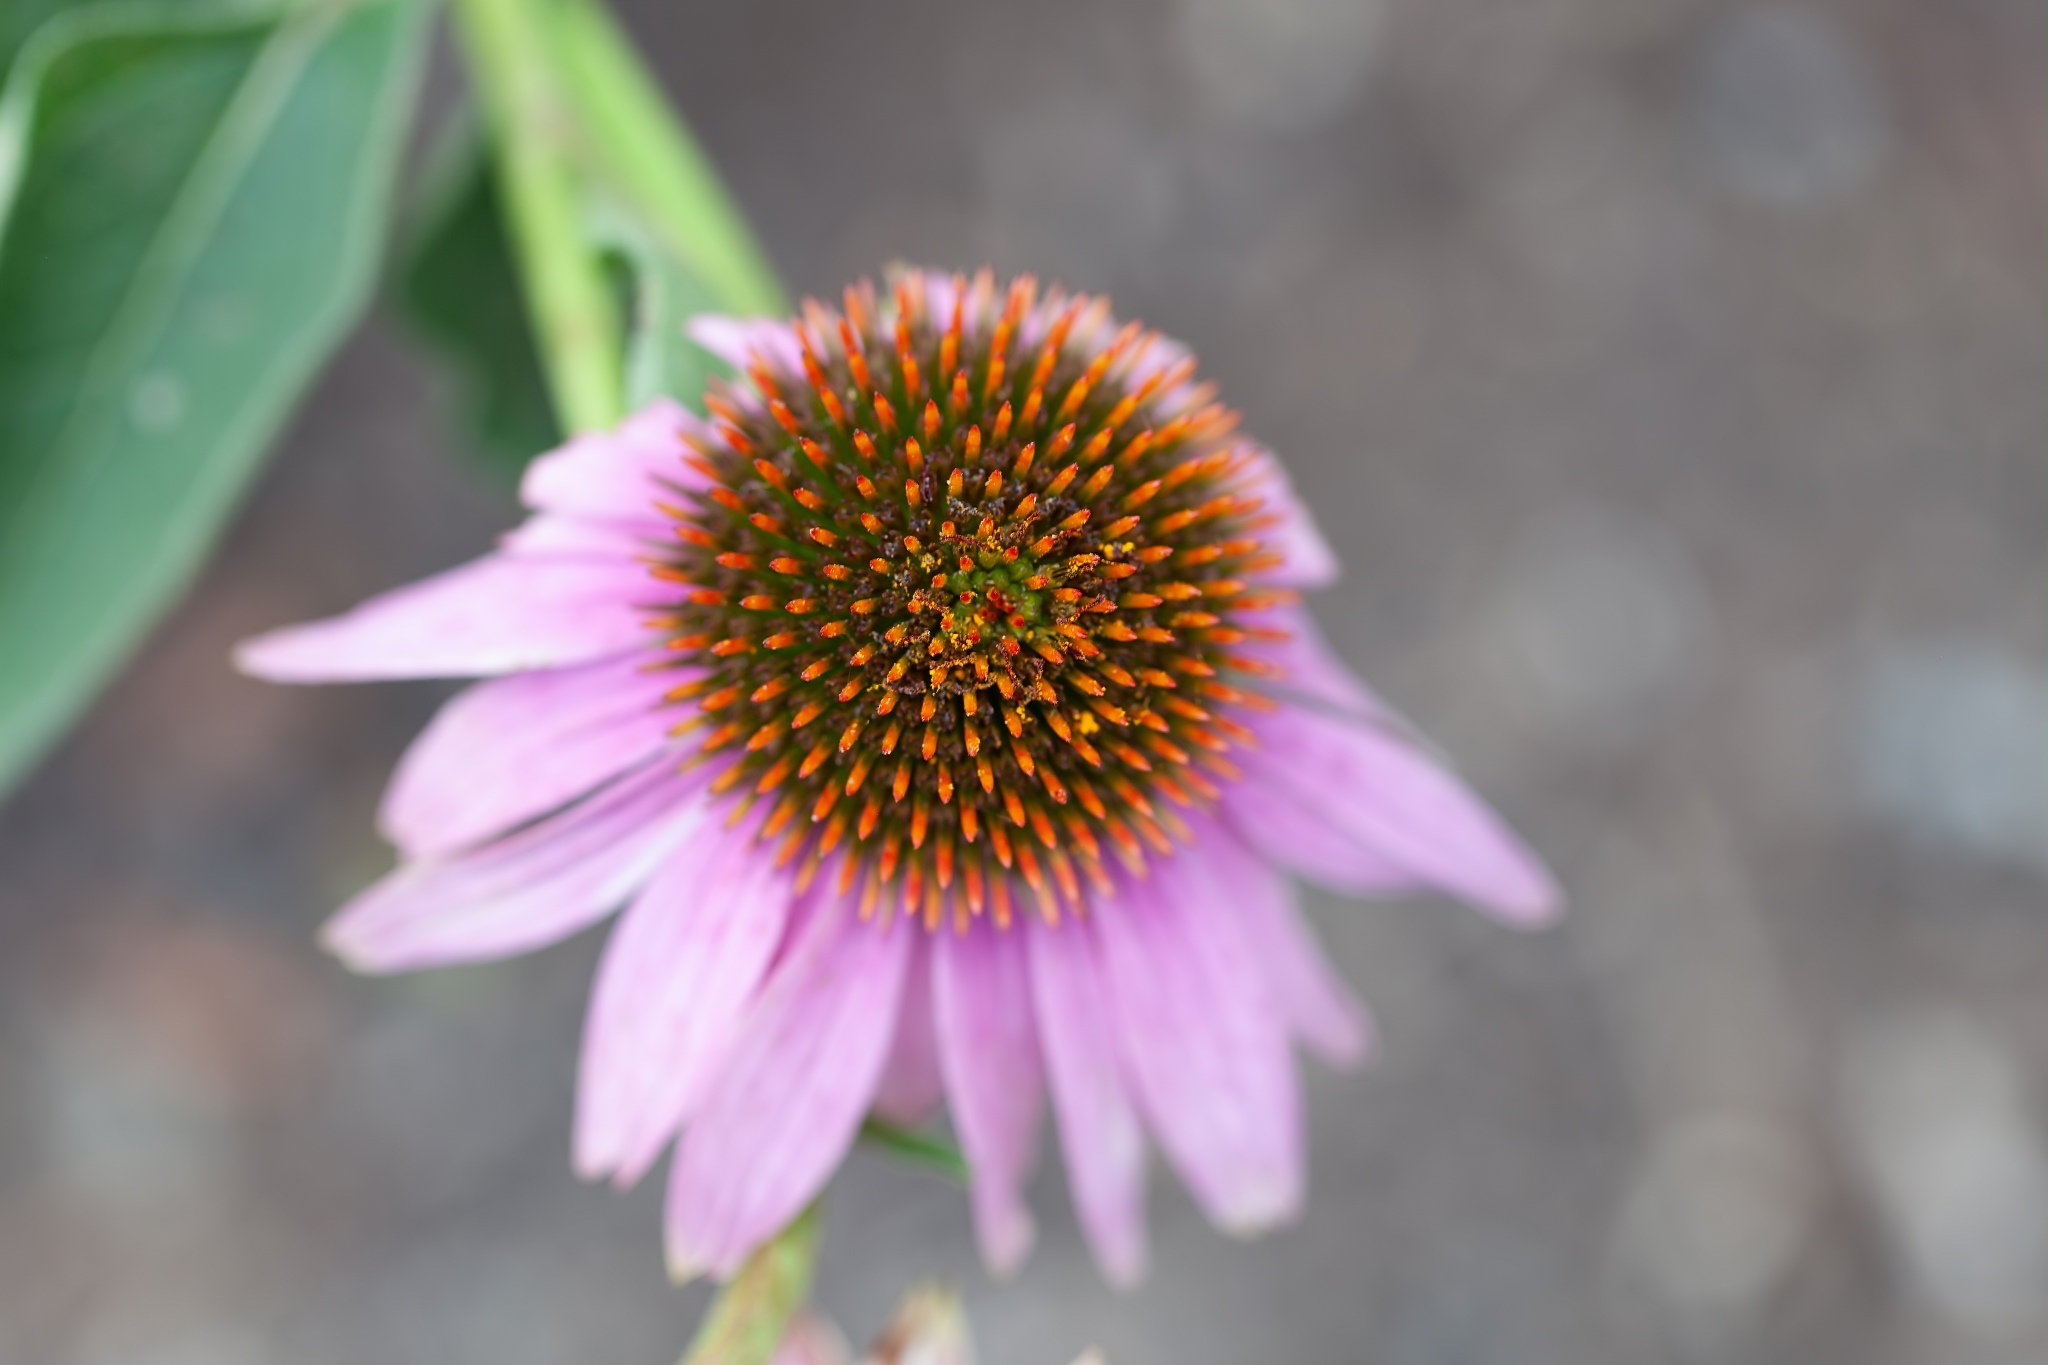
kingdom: Plantae
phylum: Tracheophyta
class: Magnoliopsida
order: Asterales
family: Asteraceae
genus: Echinacea
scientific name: Echinacea purpurea
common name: Broad-leaved purple coneflower
